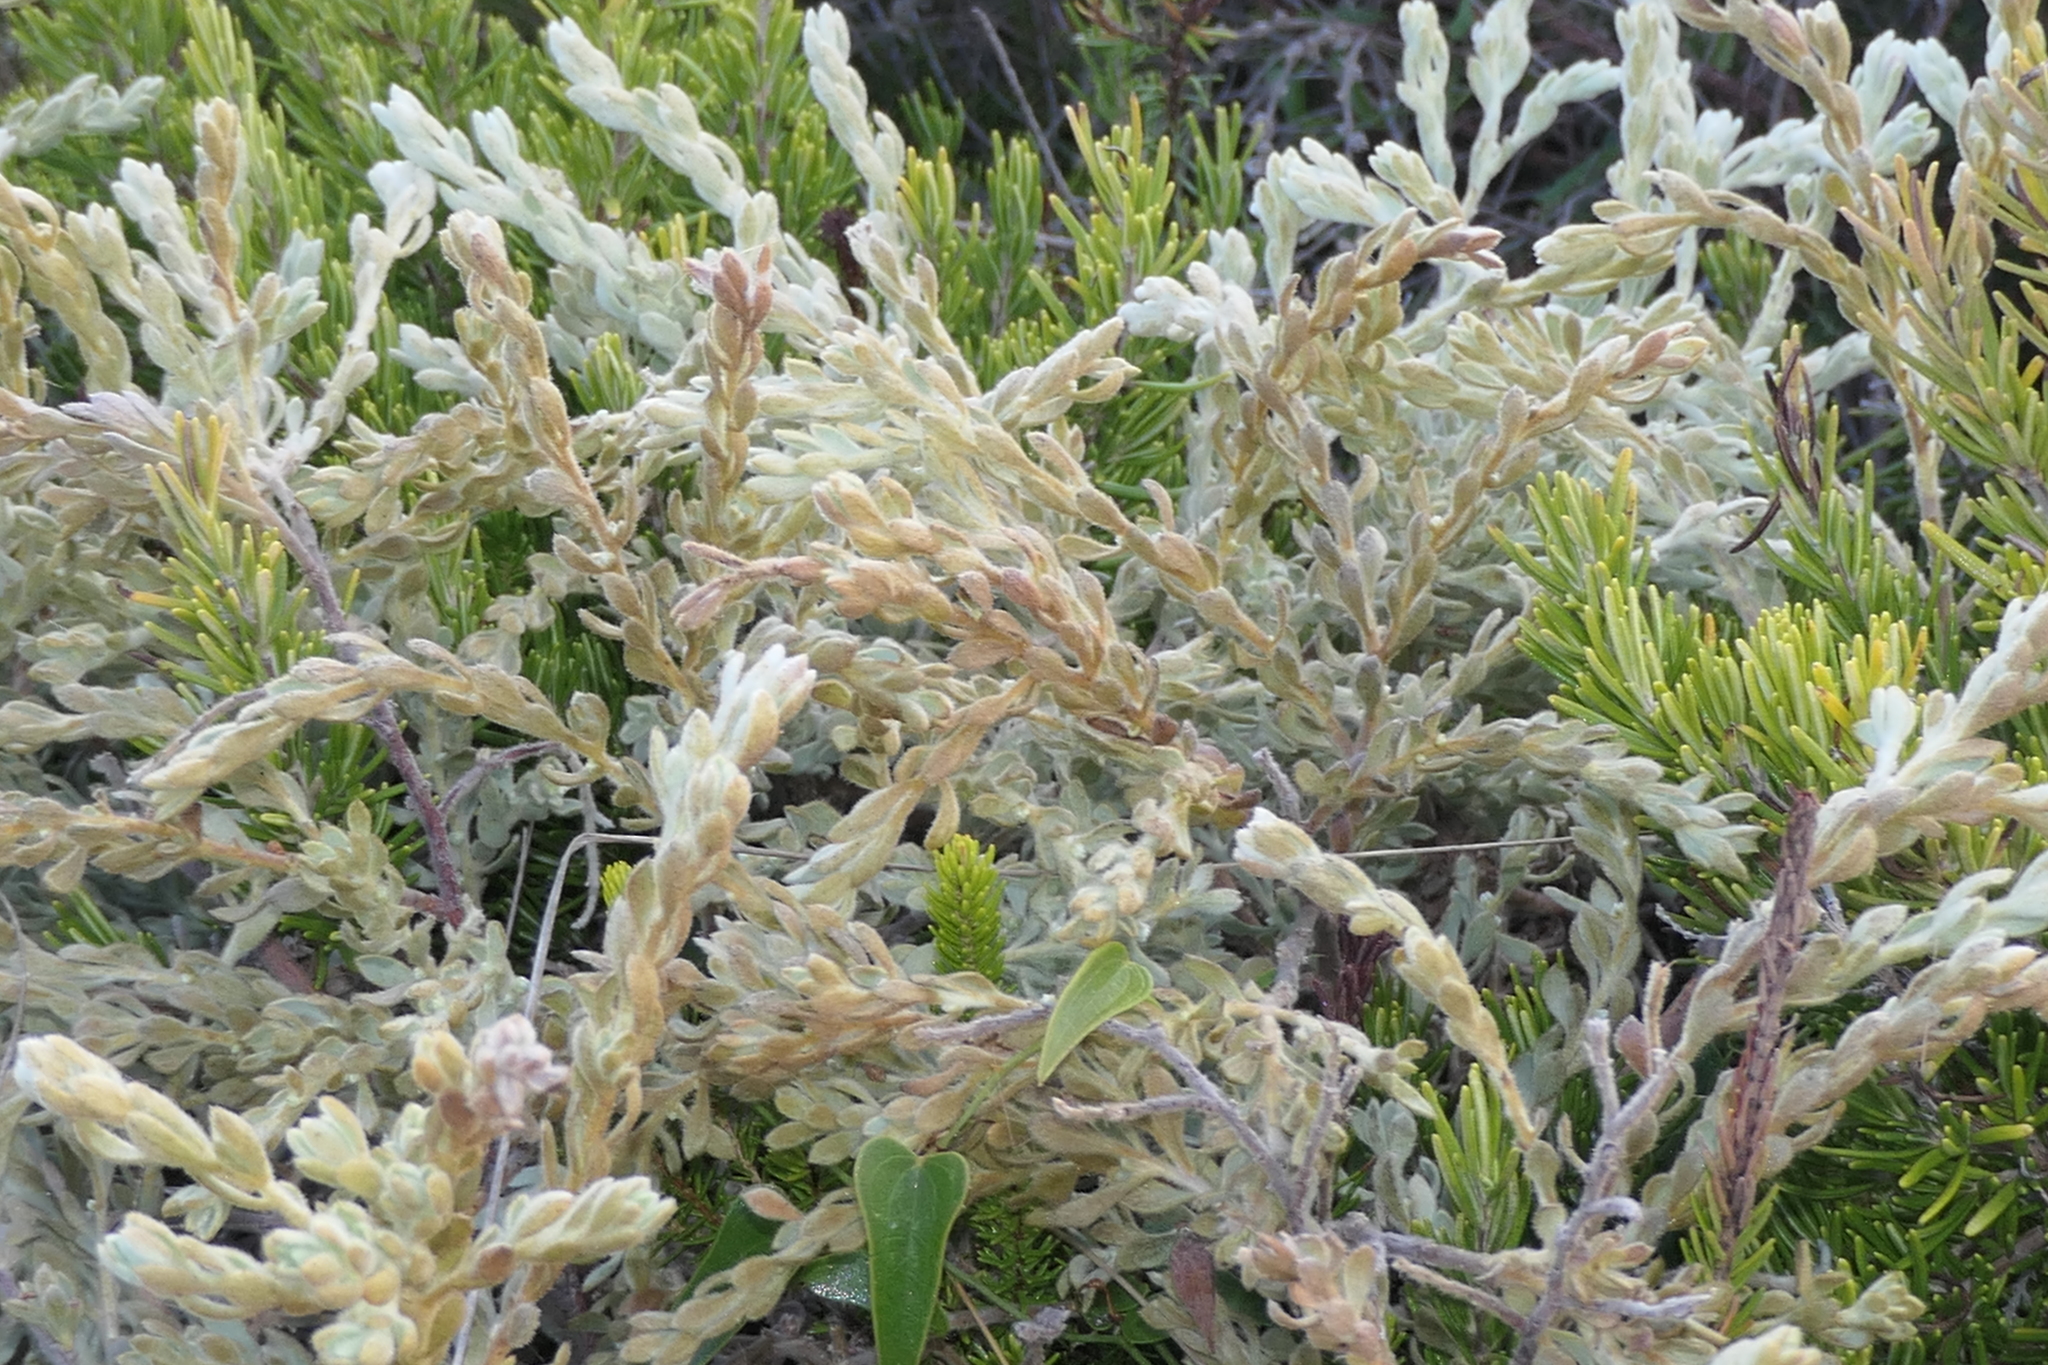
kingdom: Plantae
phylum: Tracheophyta
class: Magnoliopsida
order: Malvales
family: Thymelaeaceae
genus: Thymelaea
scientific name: Thymelaea velutina
